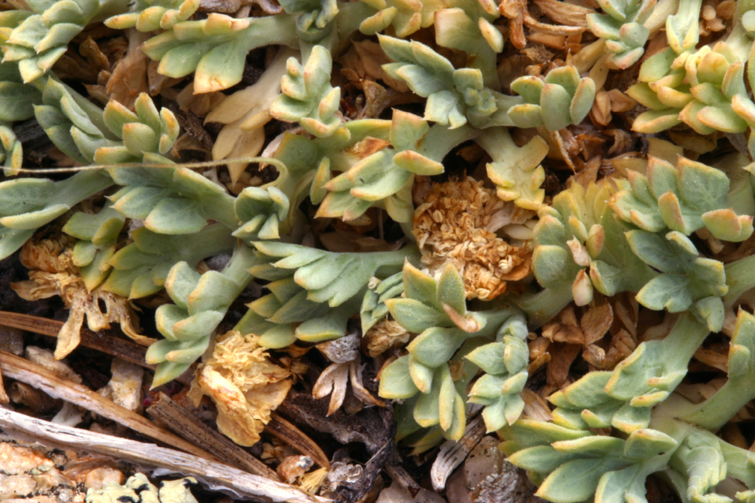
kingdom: Plantae
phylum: Tracheophyta
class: Magnoliopsida
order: Apiales
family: Apiaceae
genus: Podistera
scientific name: Podistera nevadensis
